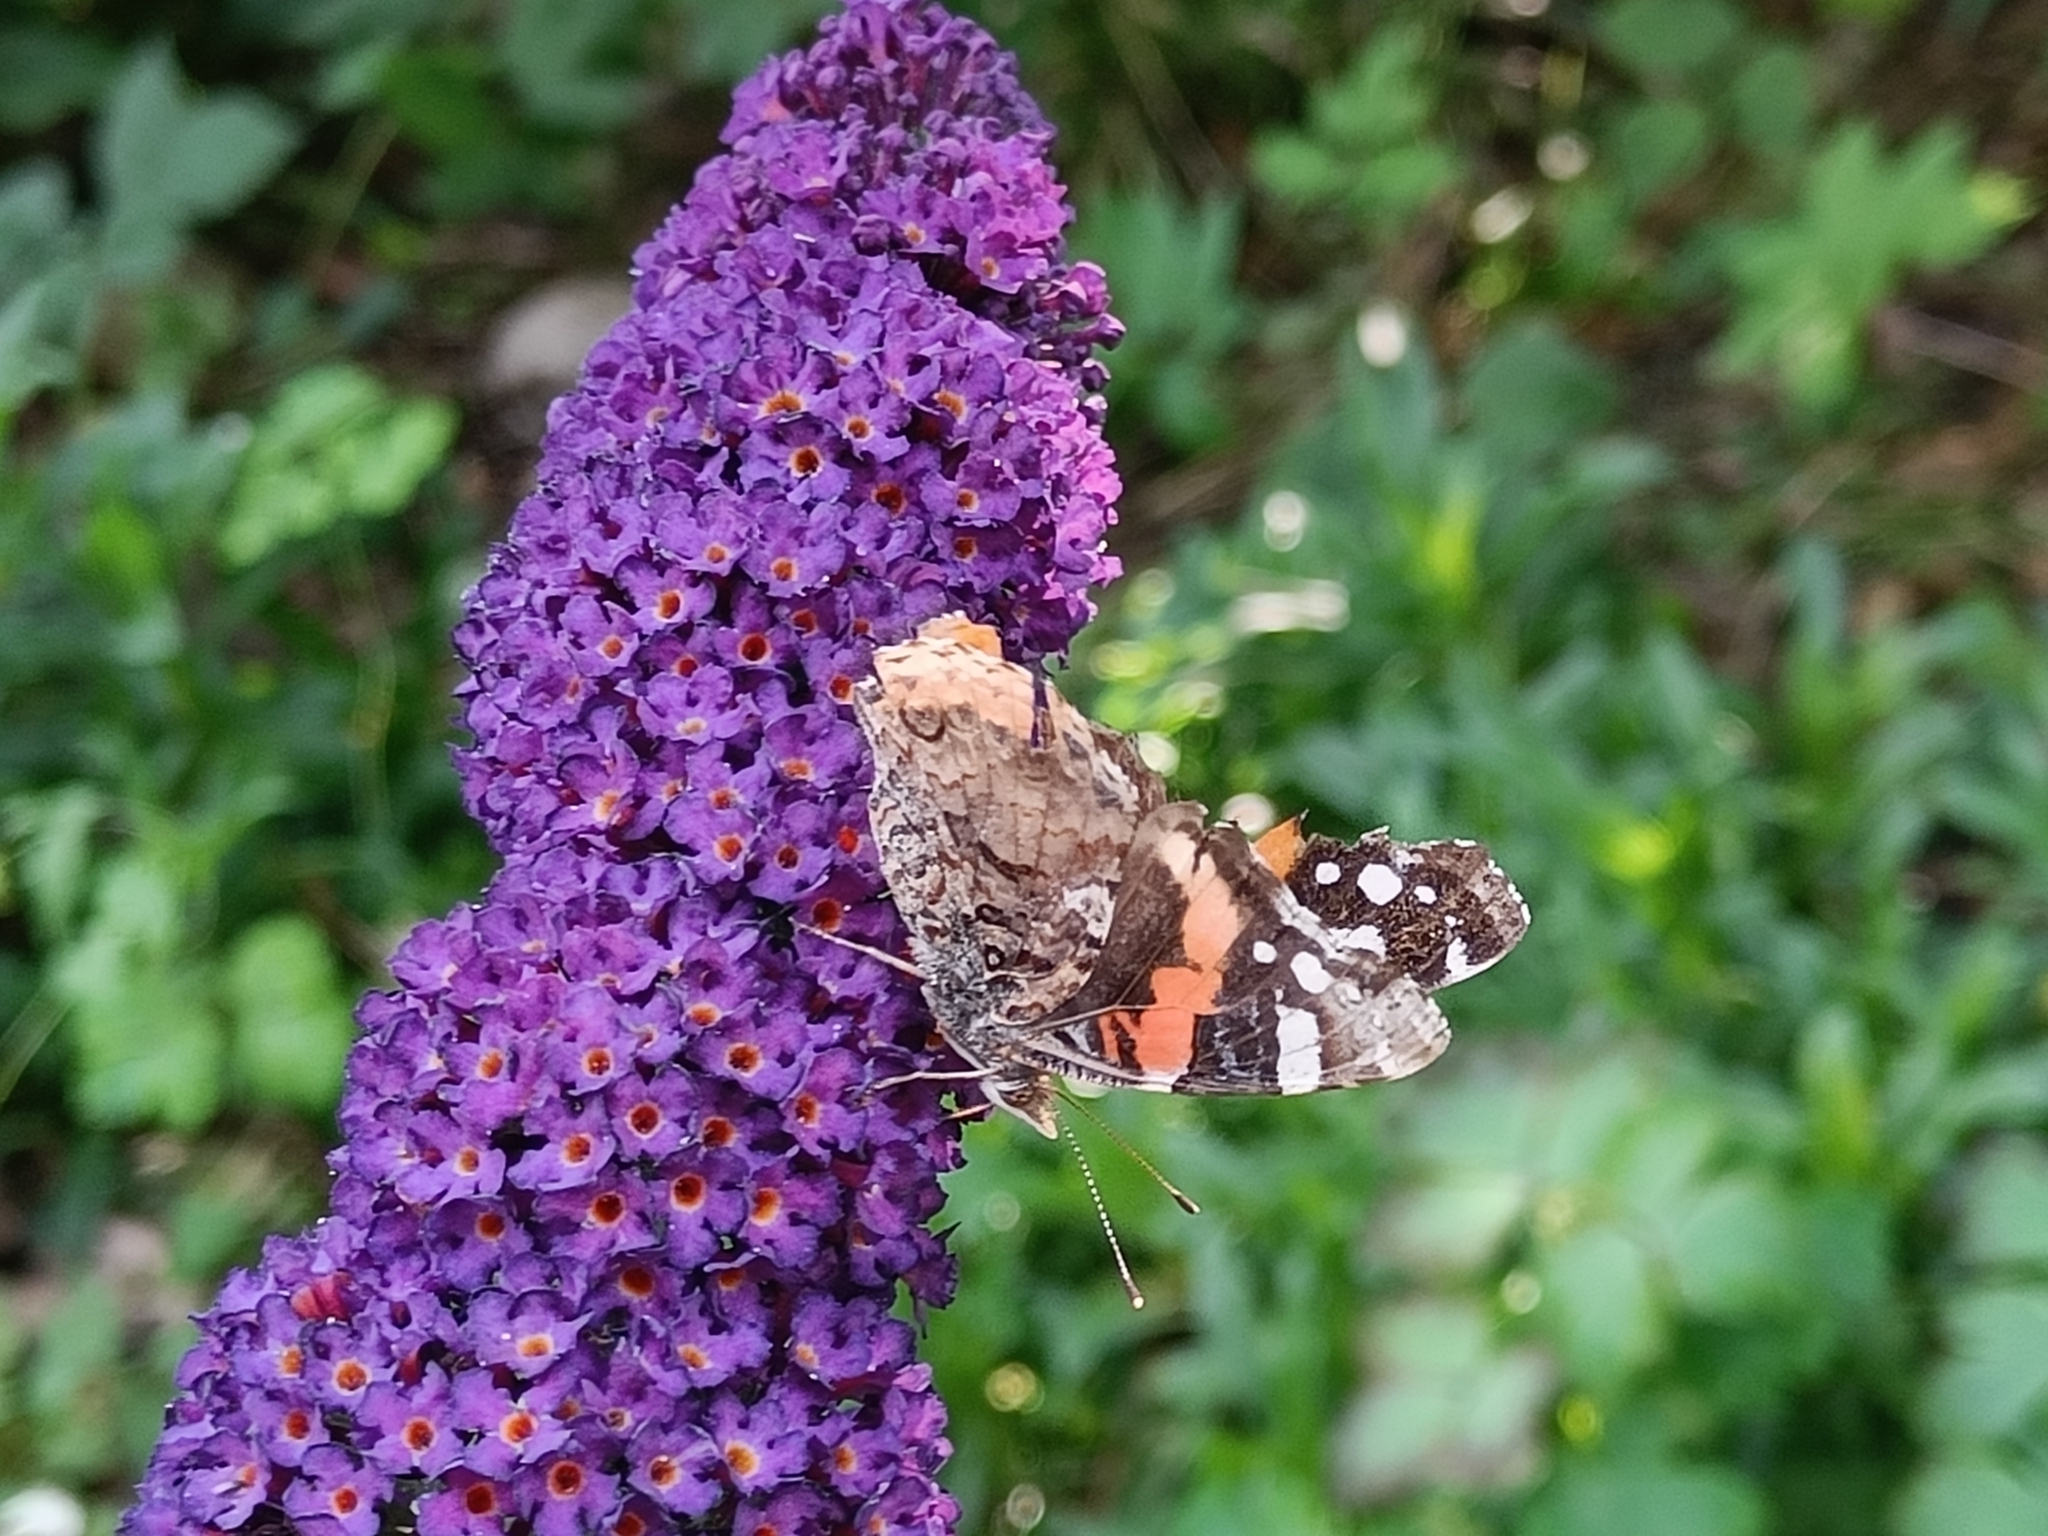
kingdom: Animalia
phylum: Arthropoda
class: Insecta
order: Lepidoptera
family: Nymphalidae
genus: Vanessa
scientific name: Vanessa atalanta
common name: Red admiral
